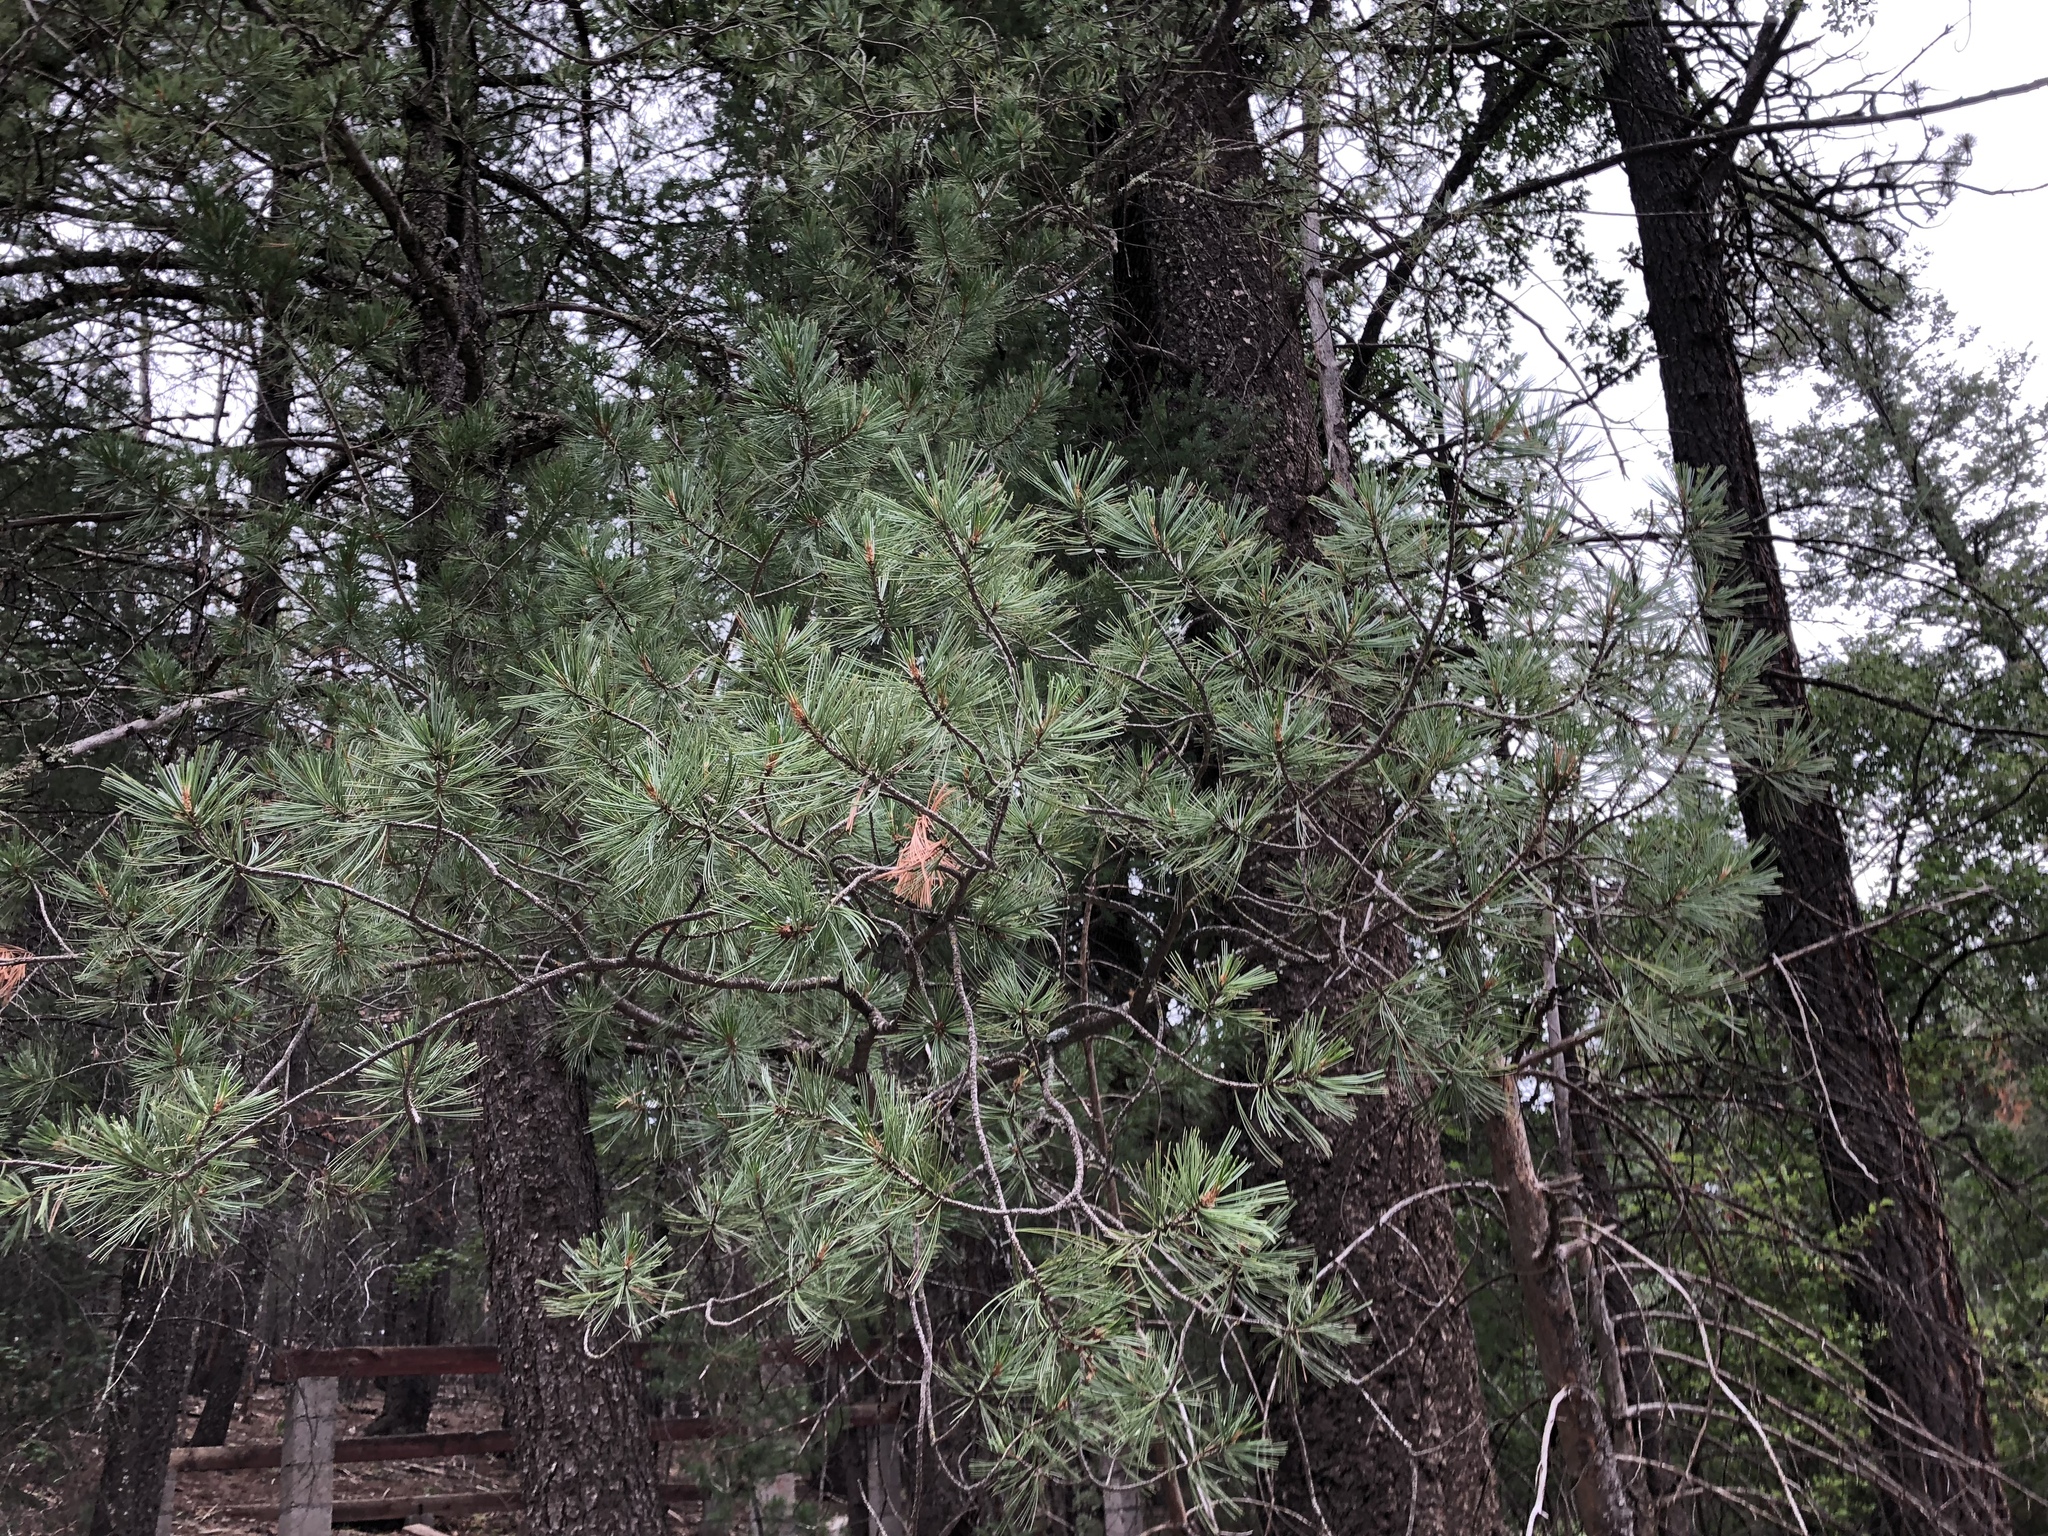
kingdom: Plantae
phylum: Tracheophyta
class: Pinopsida
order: Pinales
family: Pinaceae
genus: Pinus
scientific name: Pinus strobiformis
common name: Southwestern white pine
